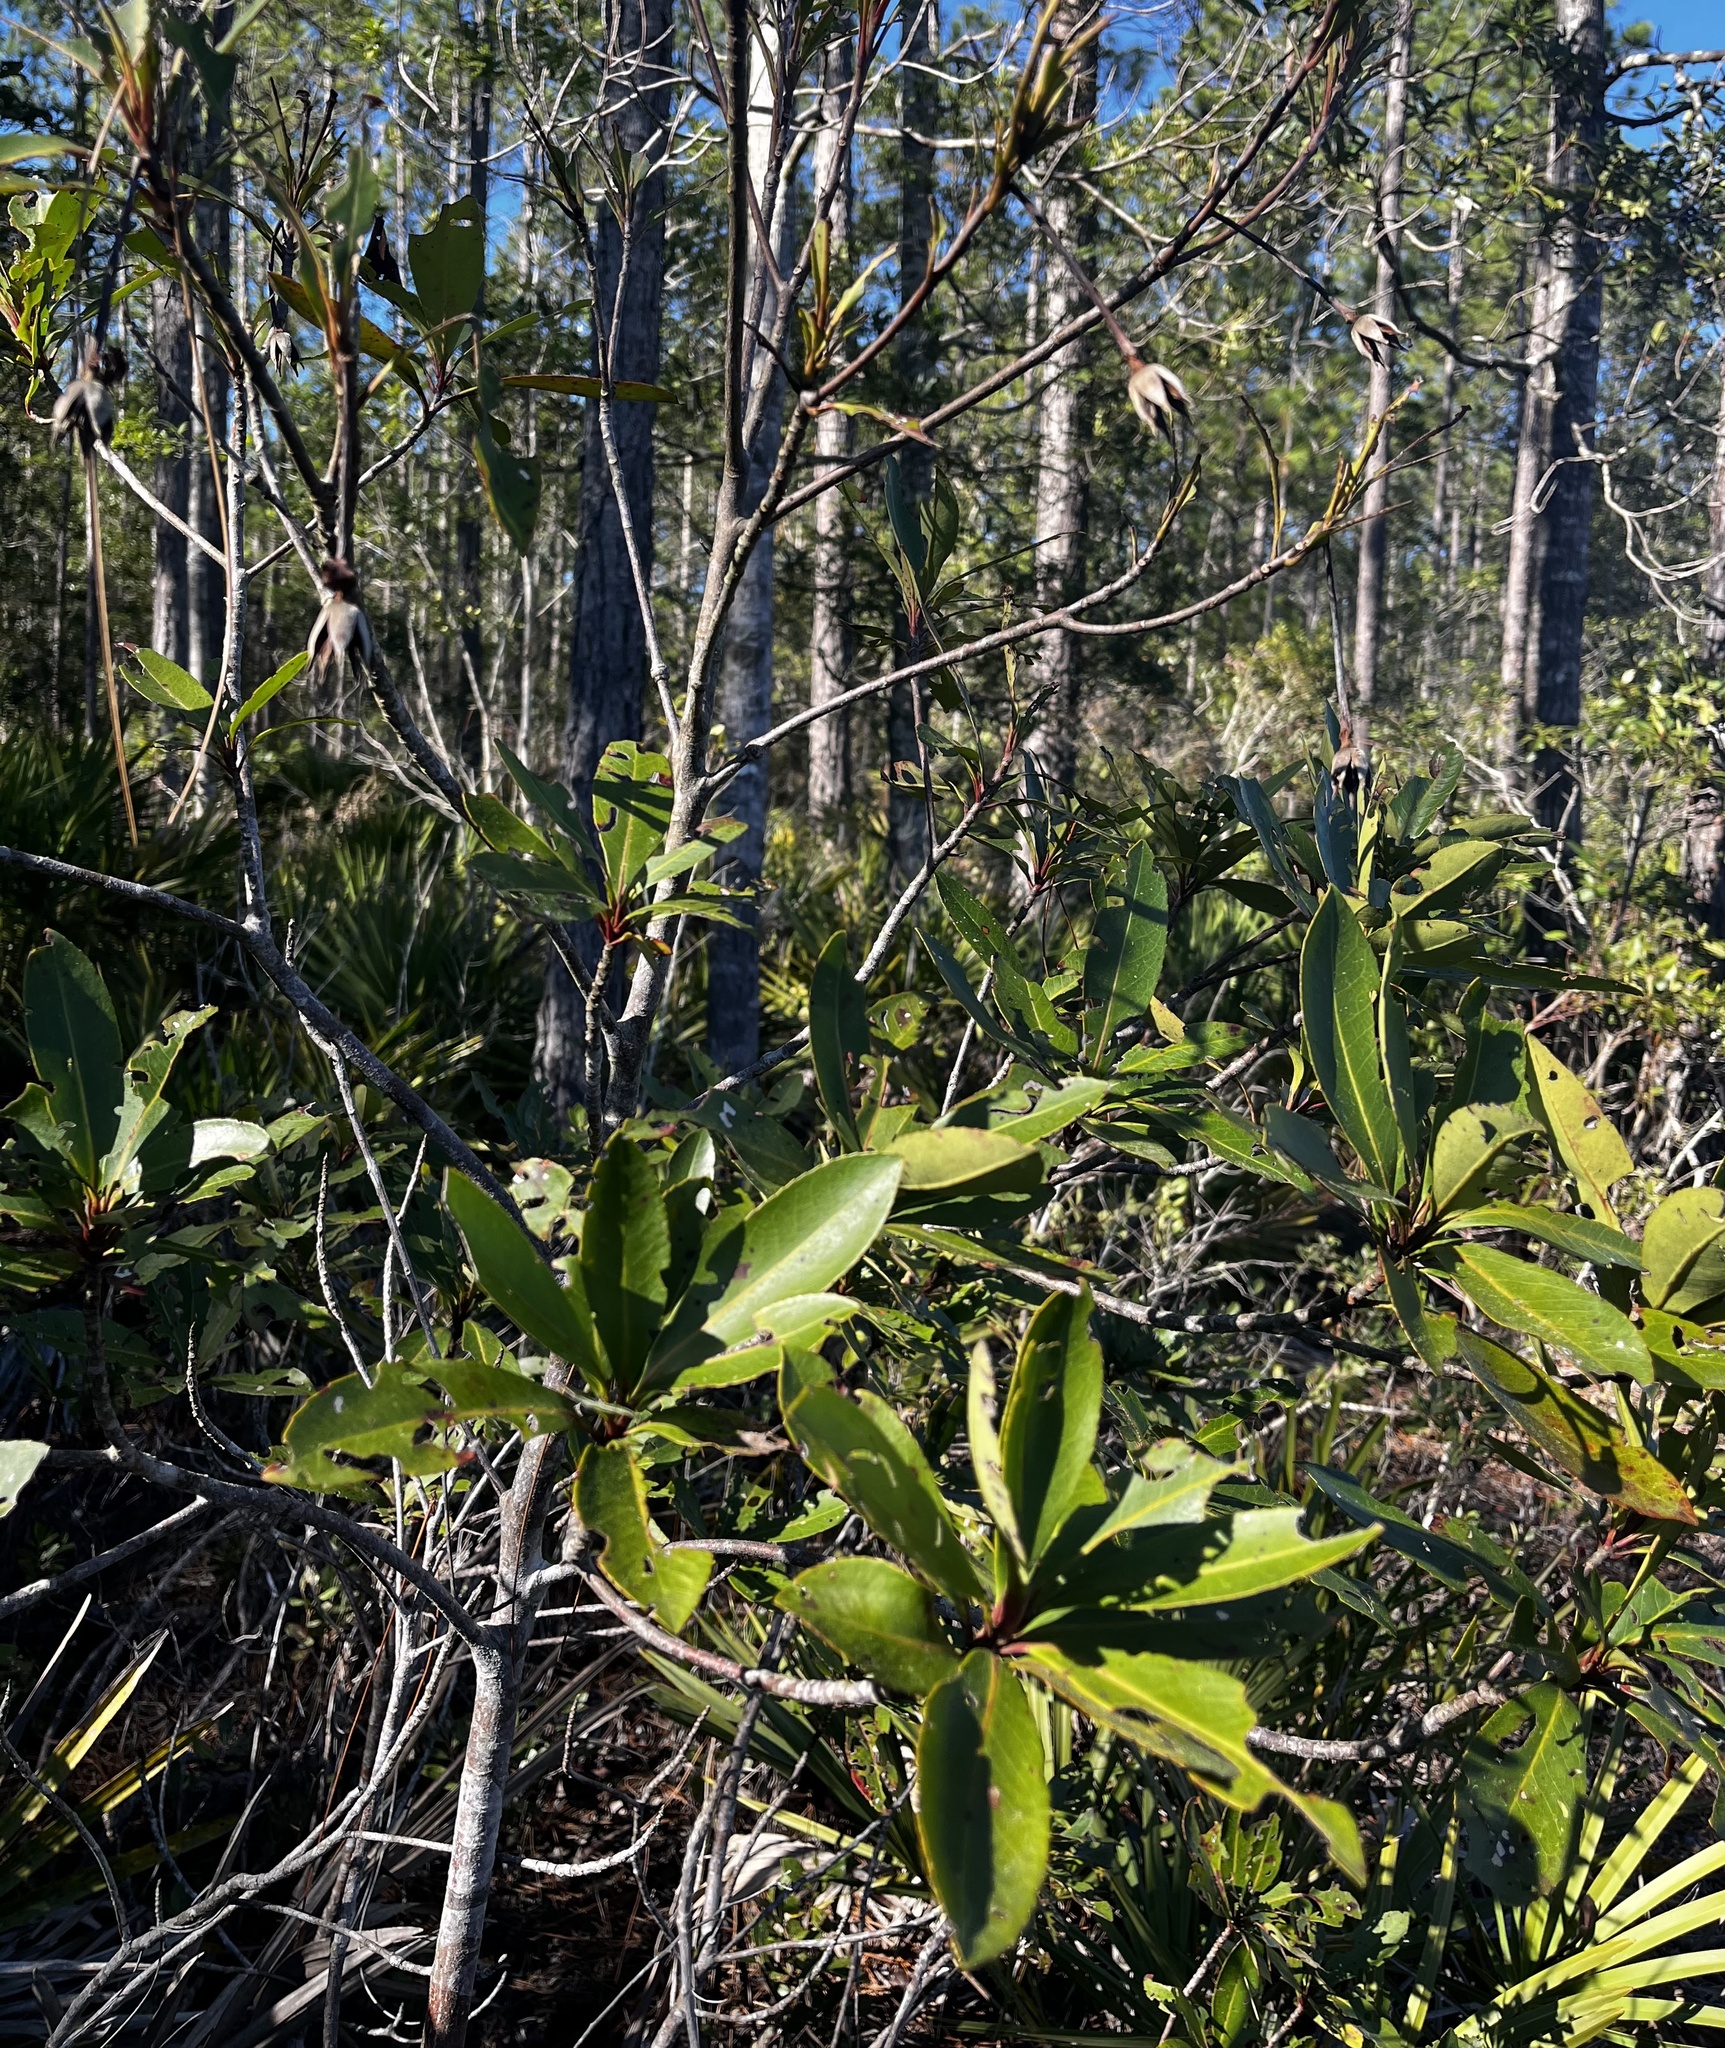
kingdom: Plantae
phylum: Tracheophyta
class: Magnoliopsida
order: Ericales
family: Theaceae
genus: Gordonia
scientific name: Gordonia lasianthus
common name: Loblolly bay
